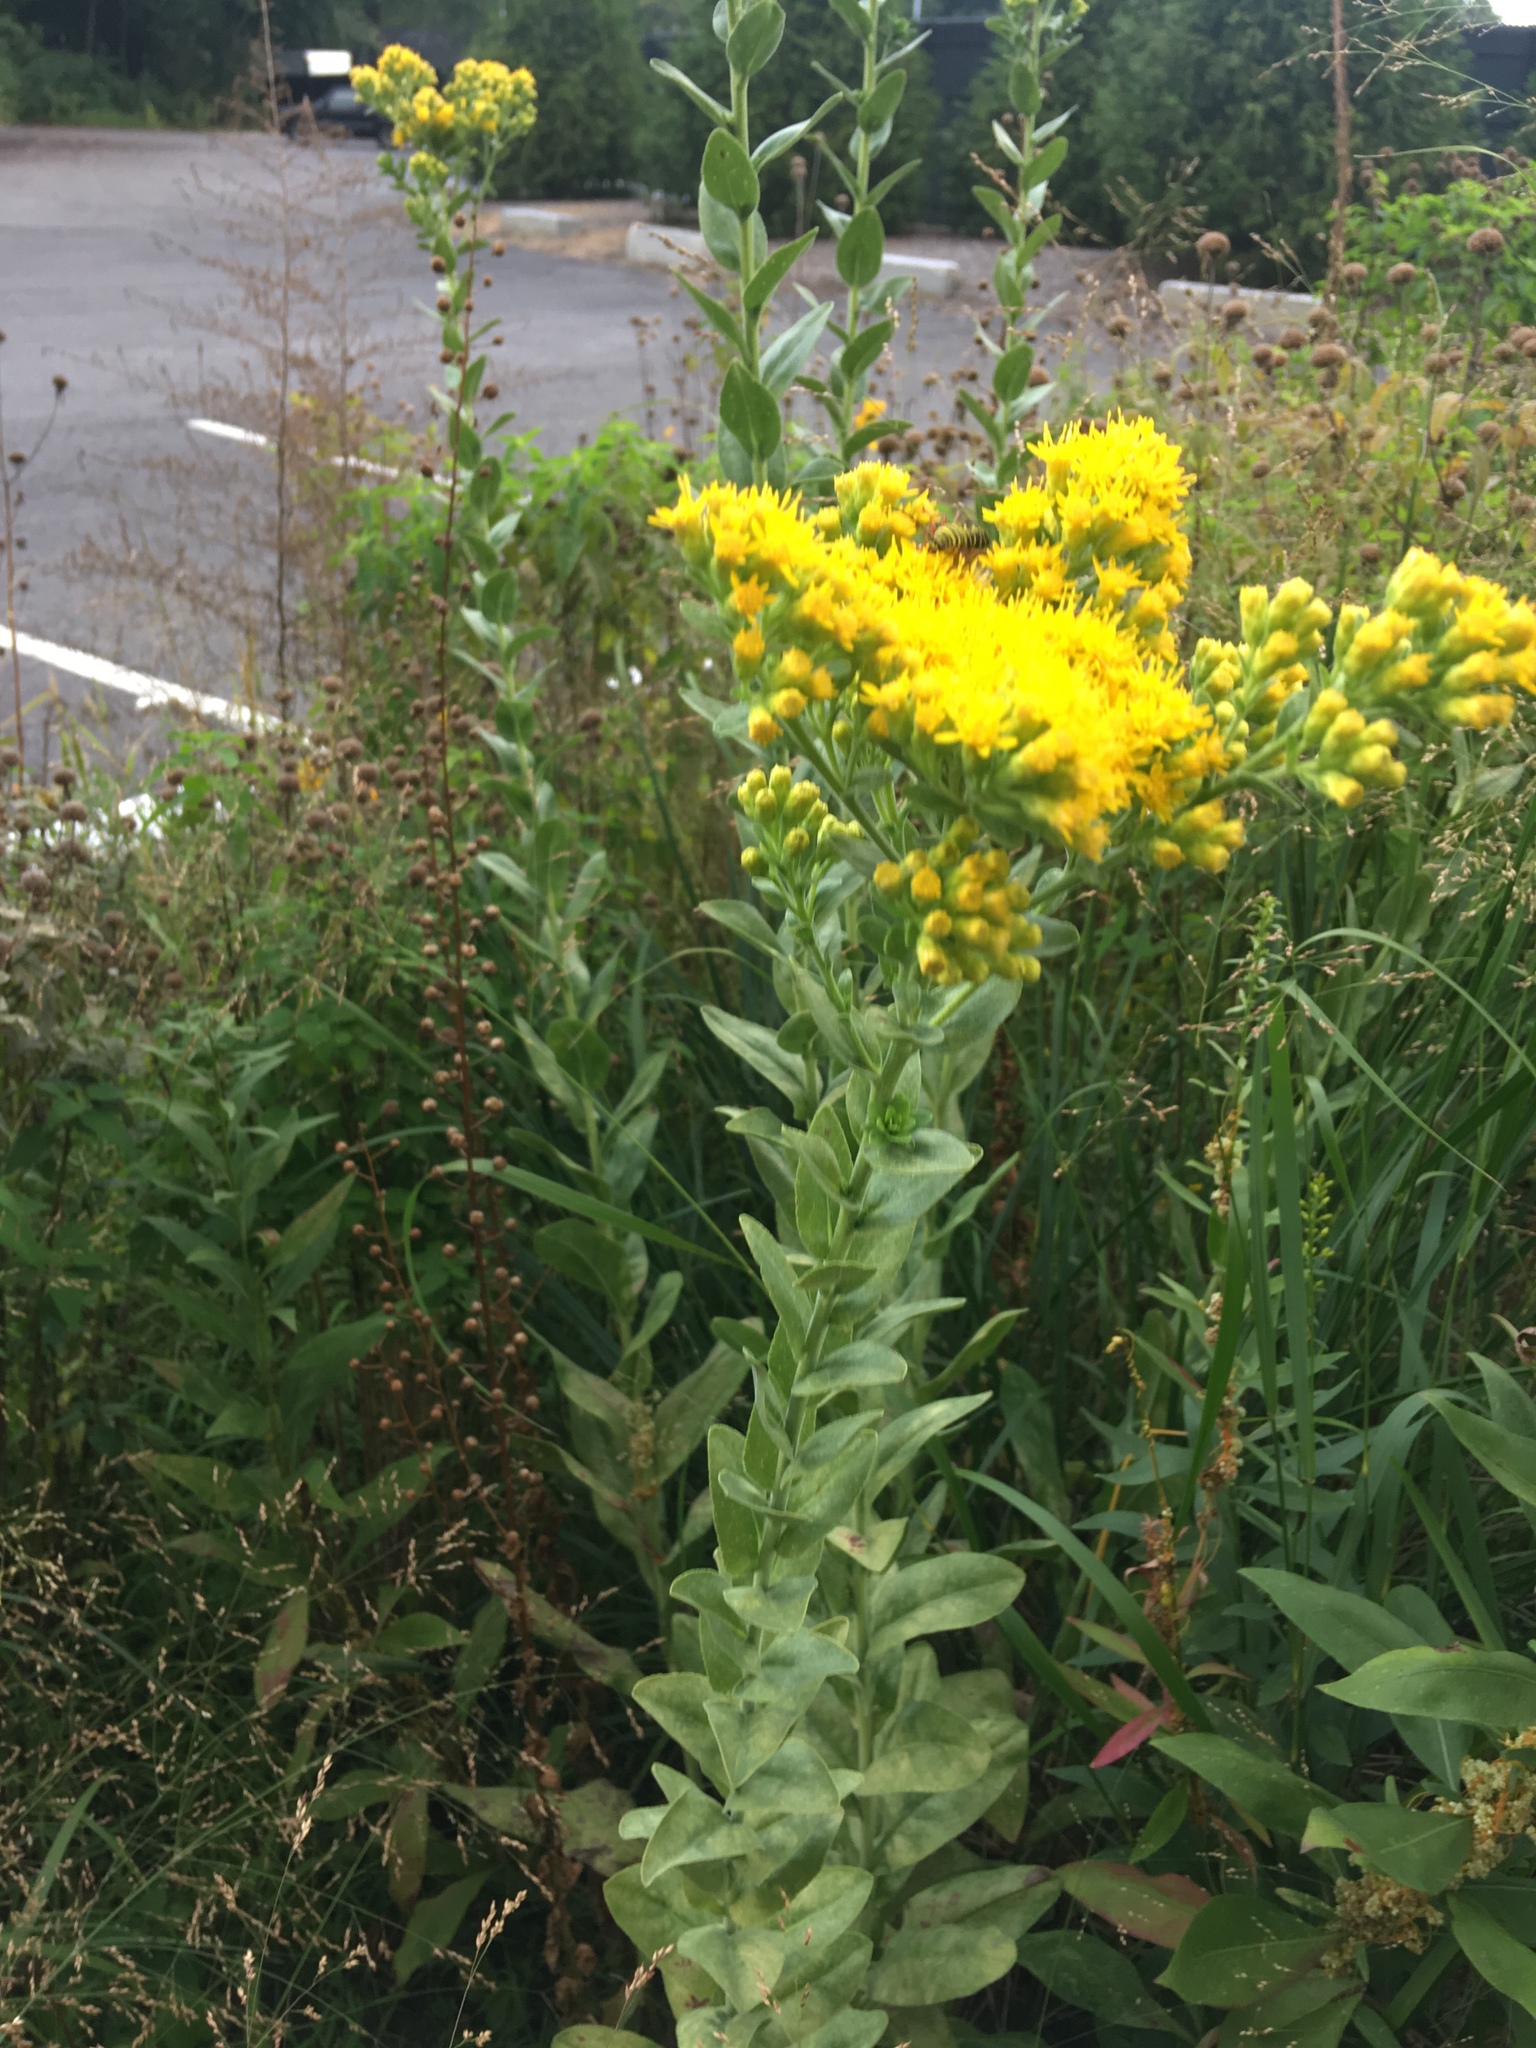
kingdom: Plantae
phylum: Tracheophyta
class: Magnoliopsida
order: Asterales
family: Asteraceae
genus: Solidago
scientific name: Solidago rigida
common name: Rigid goldenrod
